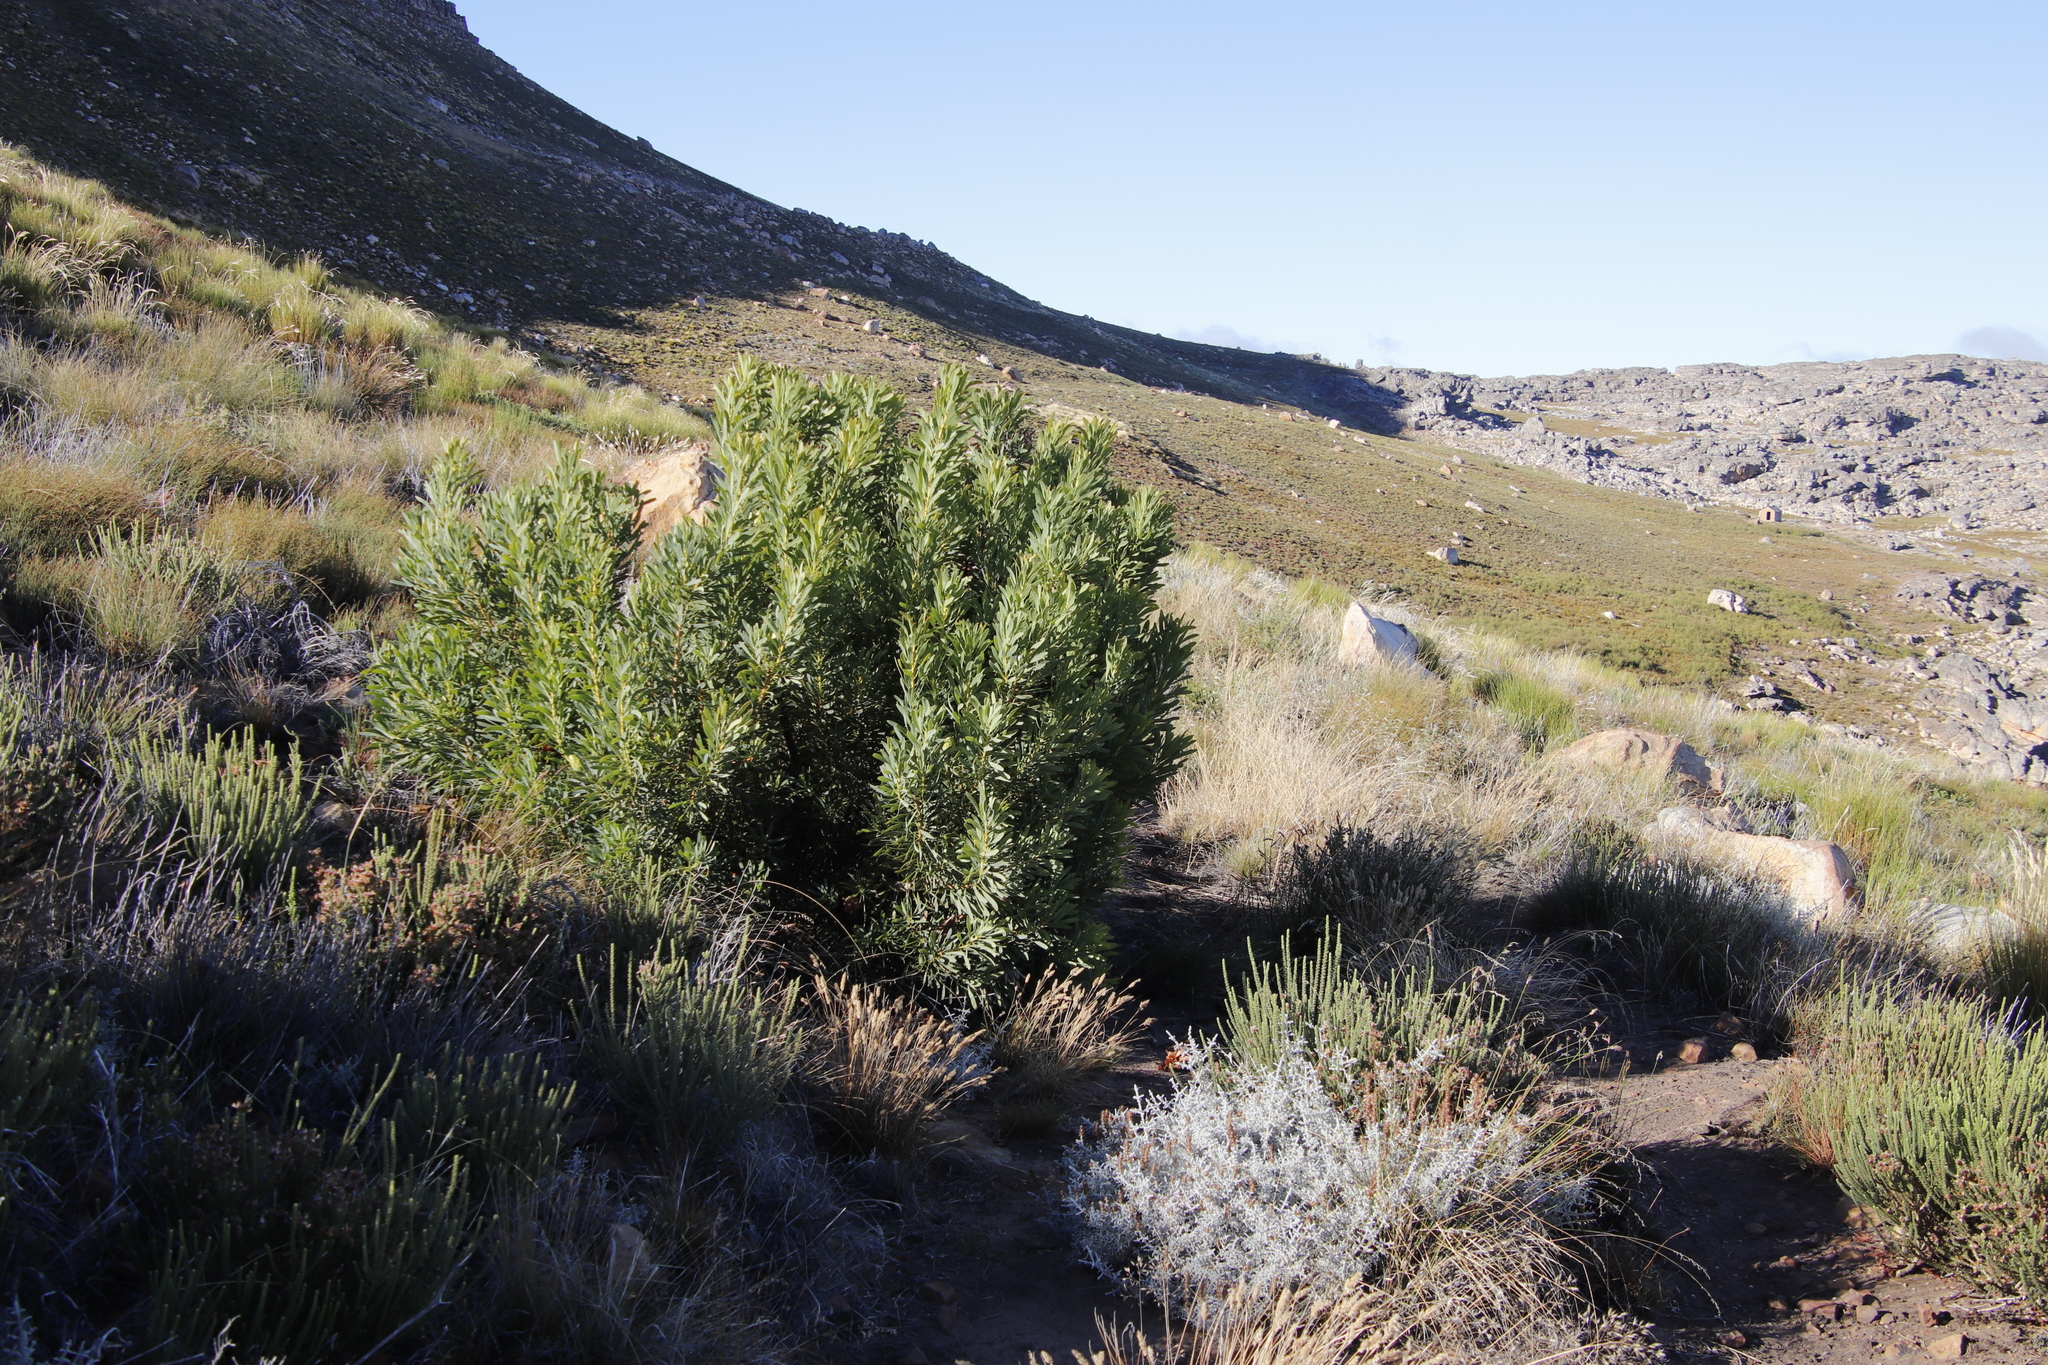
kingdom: Plantae
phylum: Tracheophyta
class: Magnoliopsida
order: Proteales
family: Proteaceae
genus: Protea
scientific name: Protea repens
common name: Sugarbush
